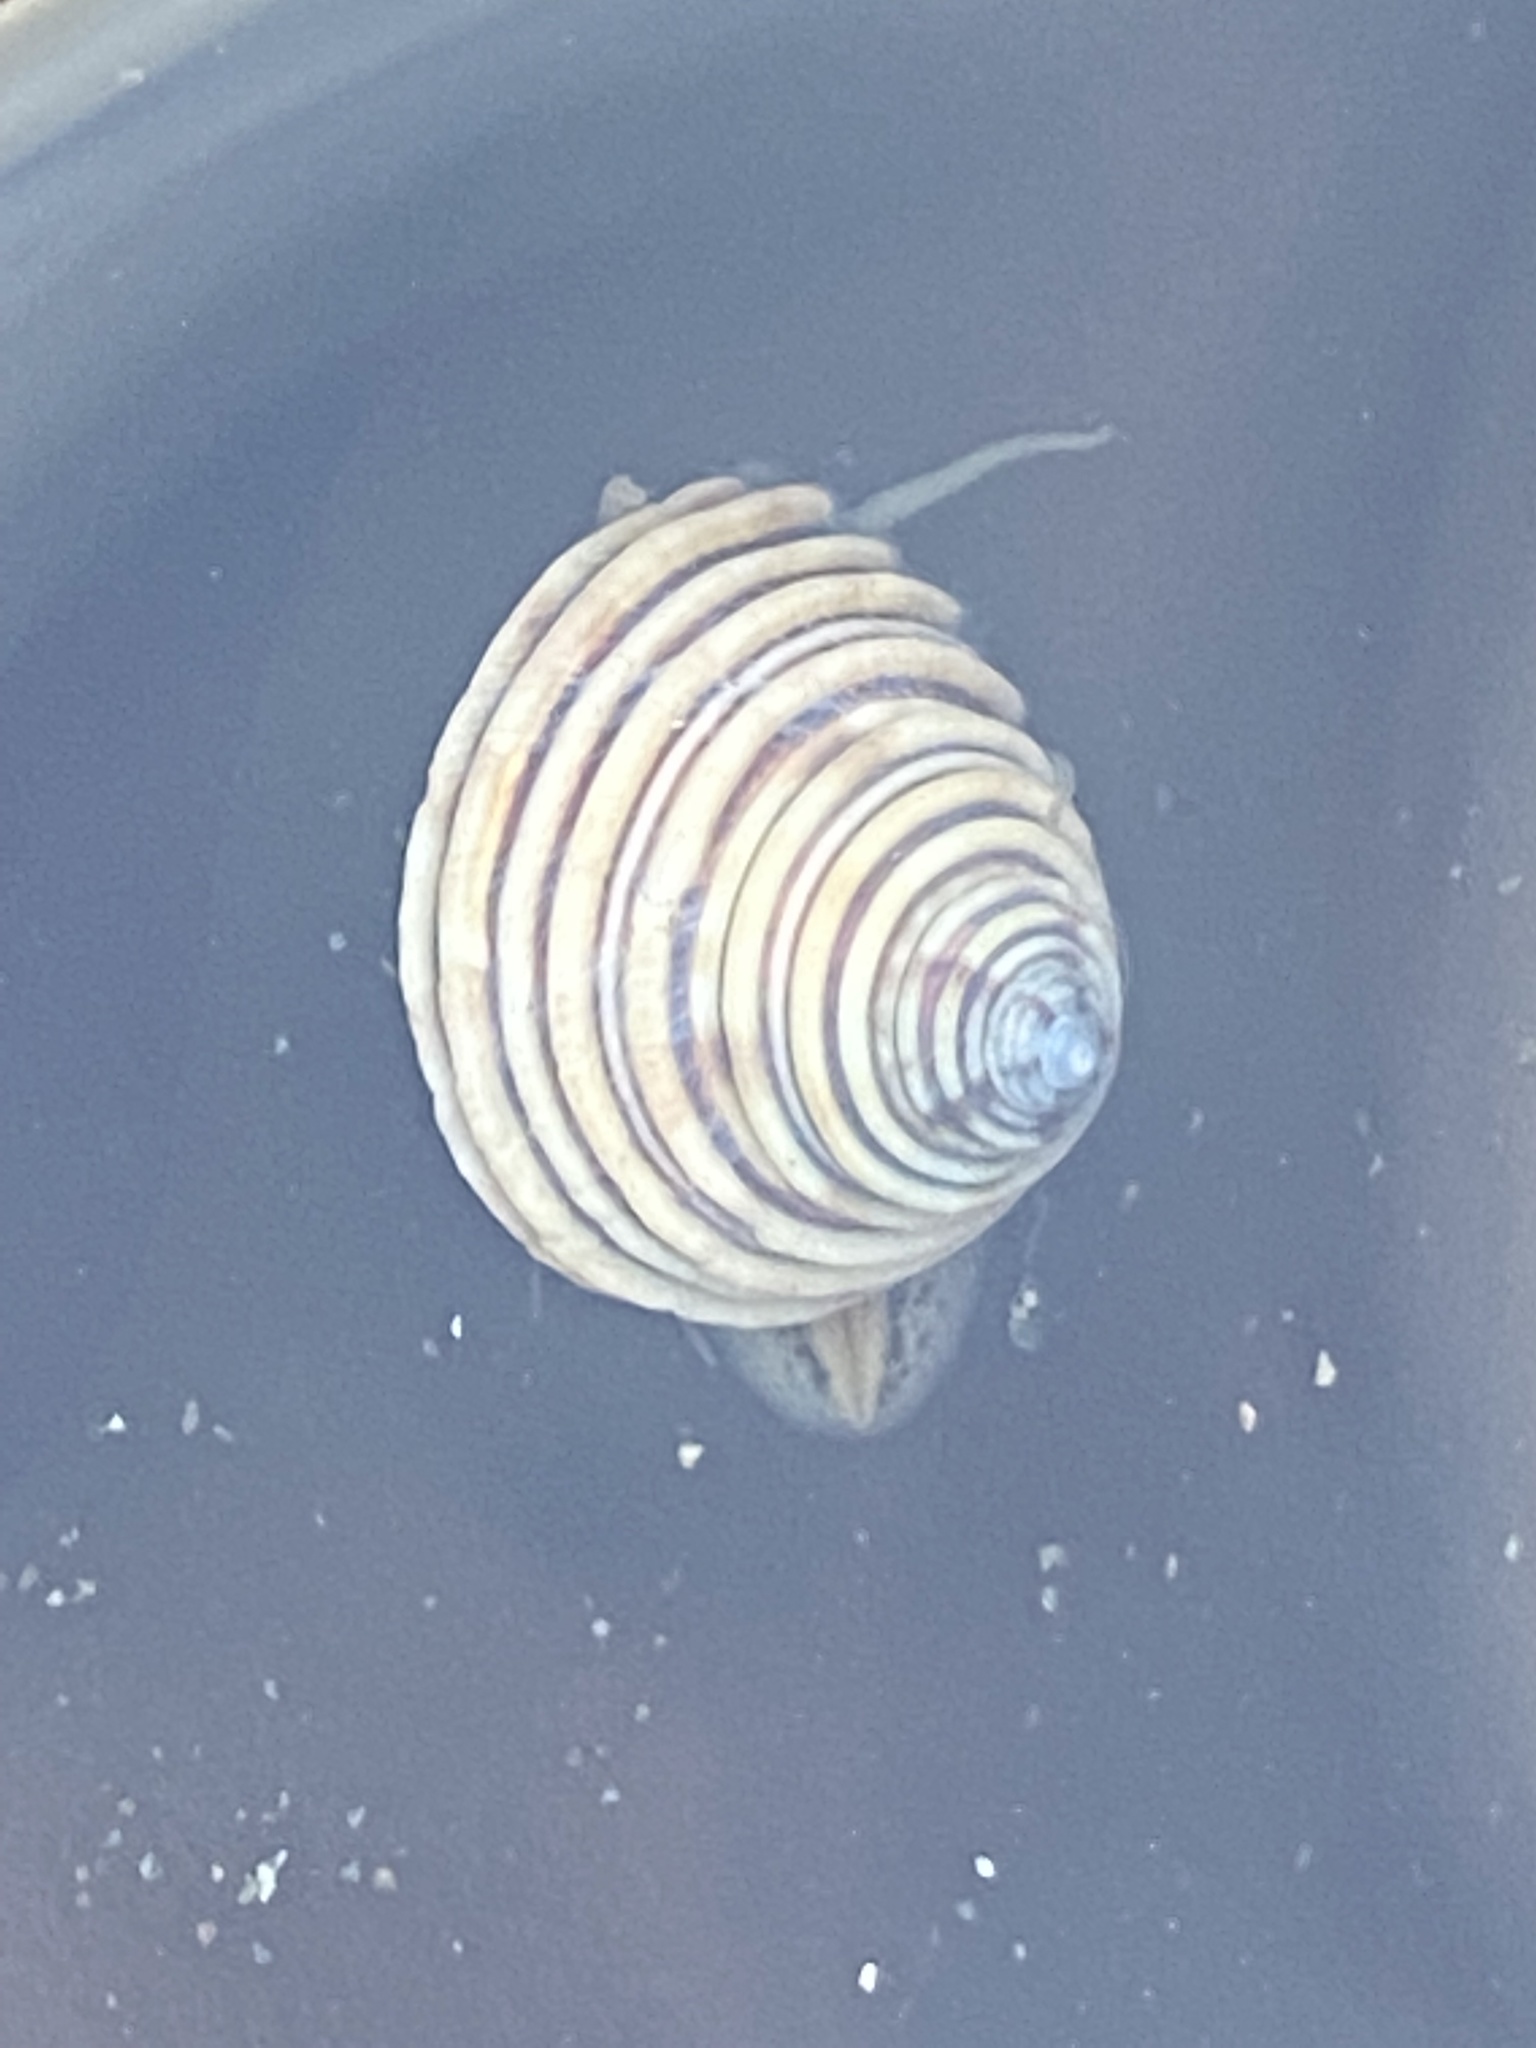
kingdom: Animalia
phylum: Mollusca
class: Gastropoda
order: Trochida
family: Calliostomatidae
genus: Calliostoma
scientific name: Calliostoma canaliculatum
